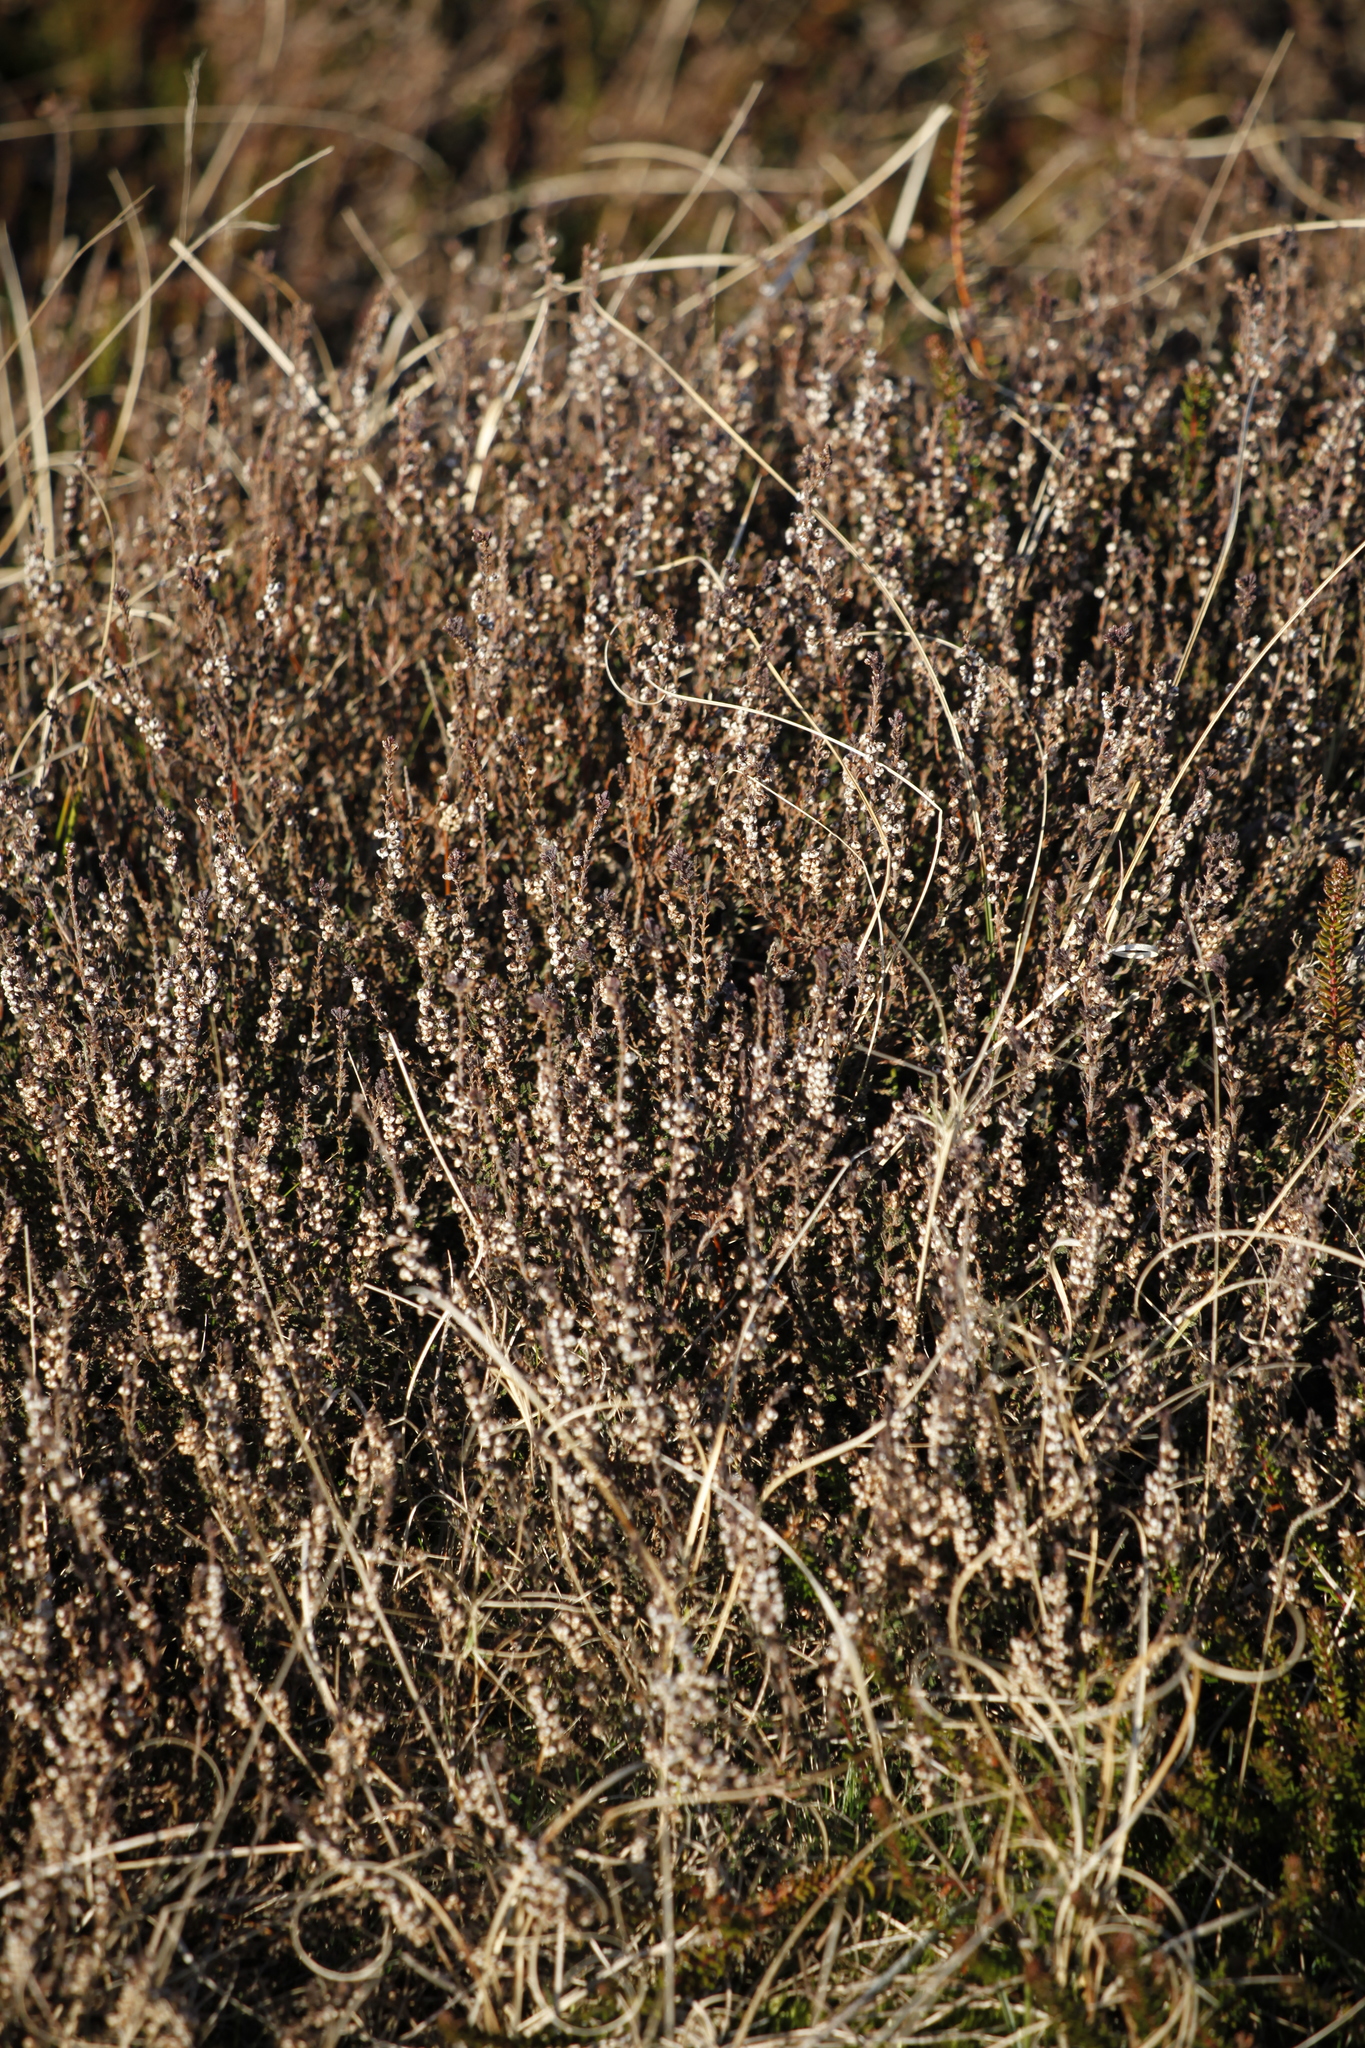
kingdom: Plantae
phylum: Tracheophyta
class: Magnoliopsida
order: Ericales
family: Ericaceae
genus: Calluna
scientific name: Calluna vulgaris
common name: Heather
